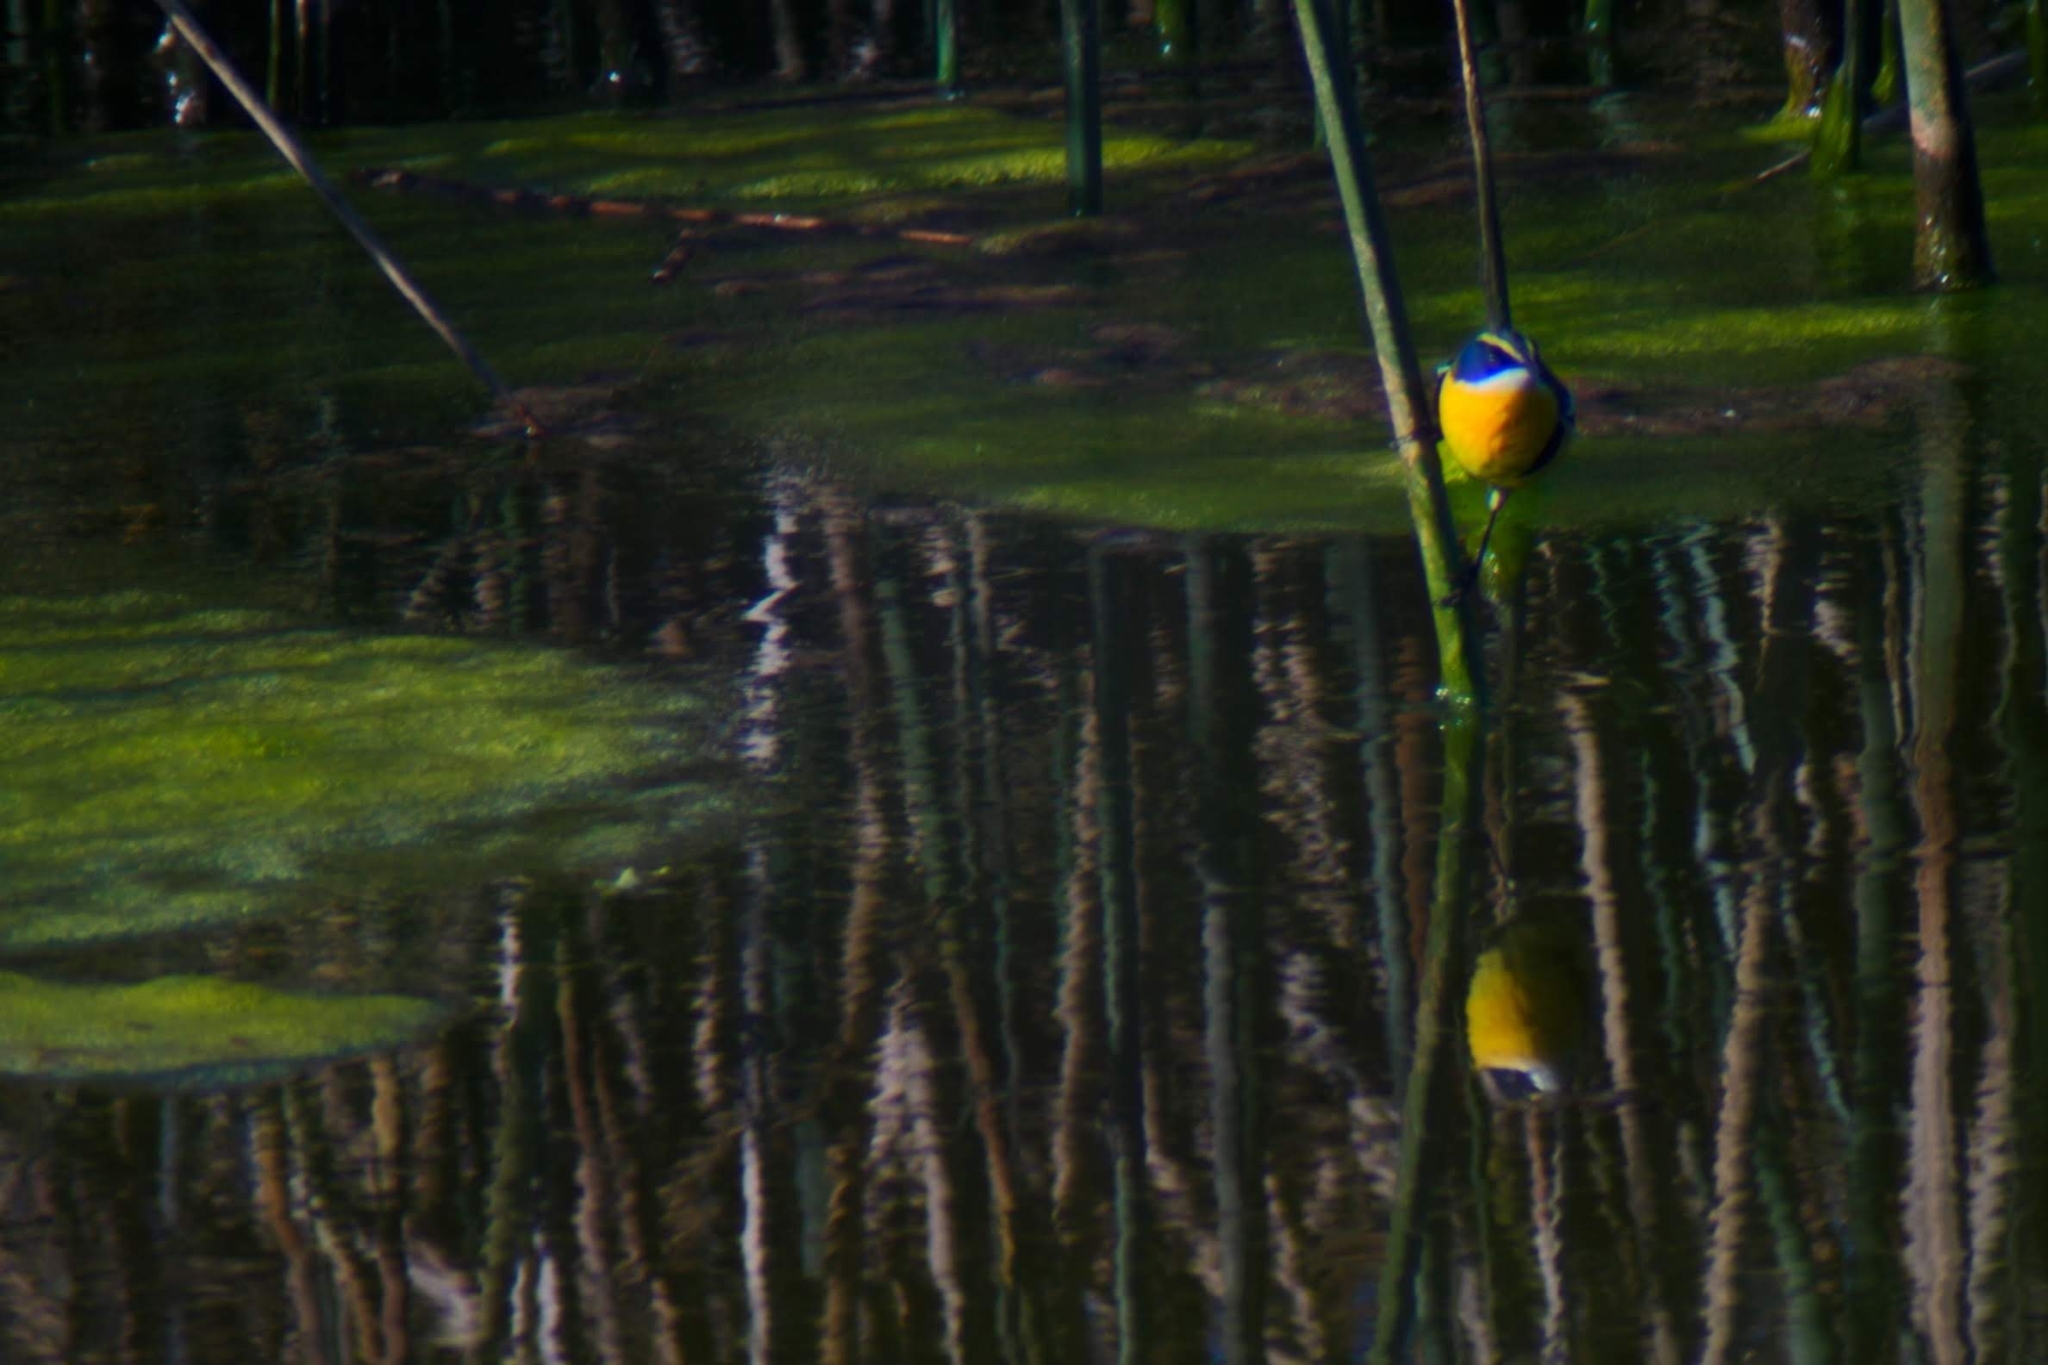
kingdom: Animalia
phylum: Chordata
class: Aves
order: Passeriformes
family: Tyrannidae
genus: Tachuris
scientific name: Tachuris rubrigastra
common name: Many-colored rush tyrant
